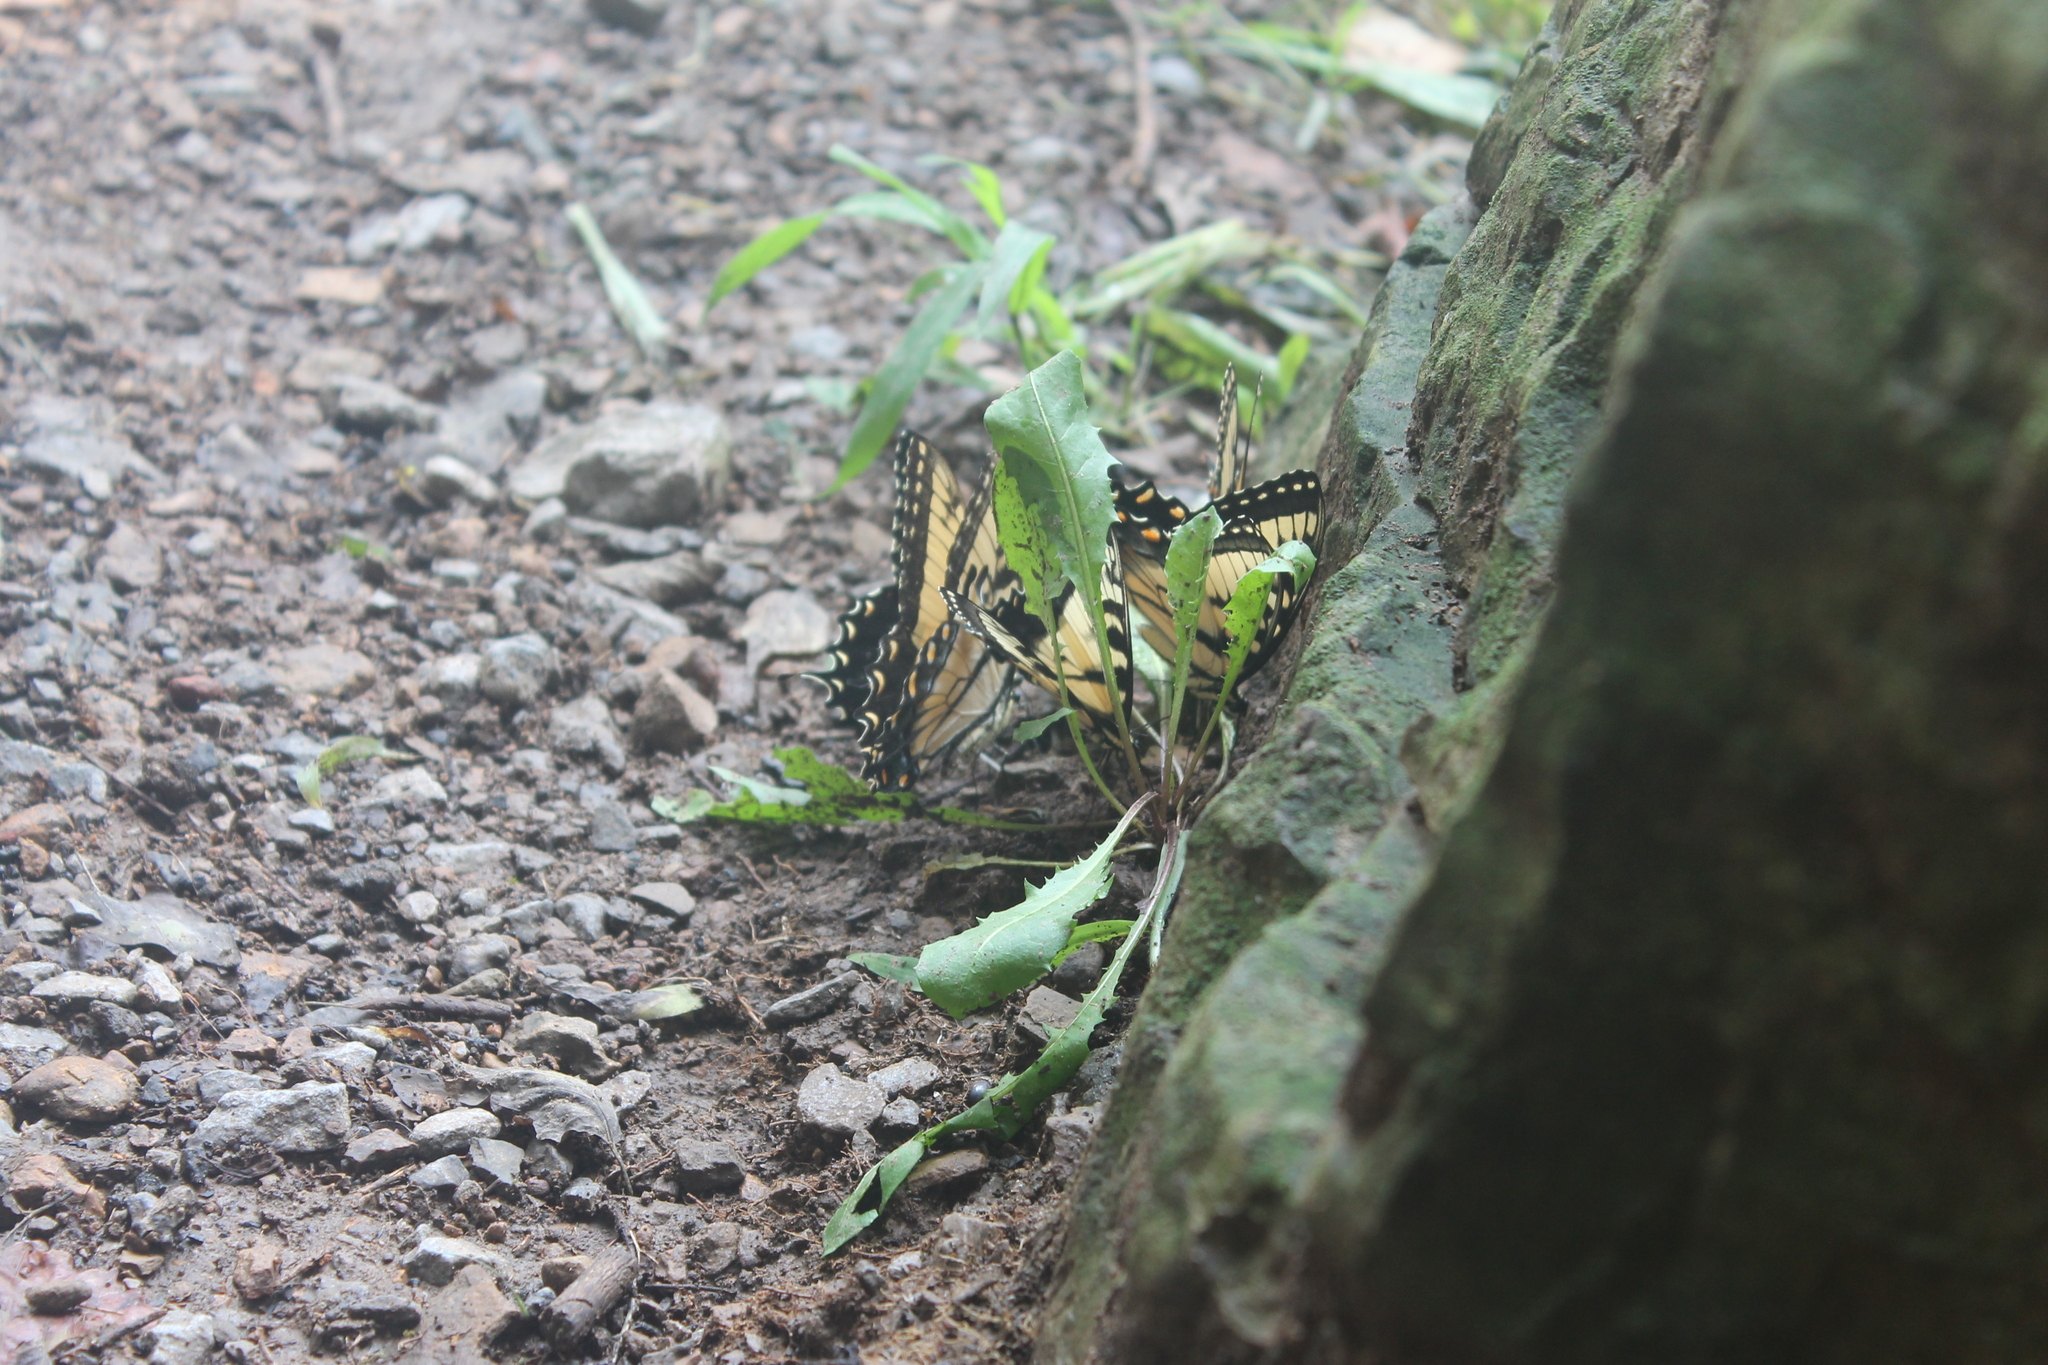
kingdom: Animalia
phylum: Arthropoda
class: Insecta
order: Lepidoptera
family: Papilionidae
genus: Papilio
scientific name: Papilio glaucus
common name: Tiger swallowtail
